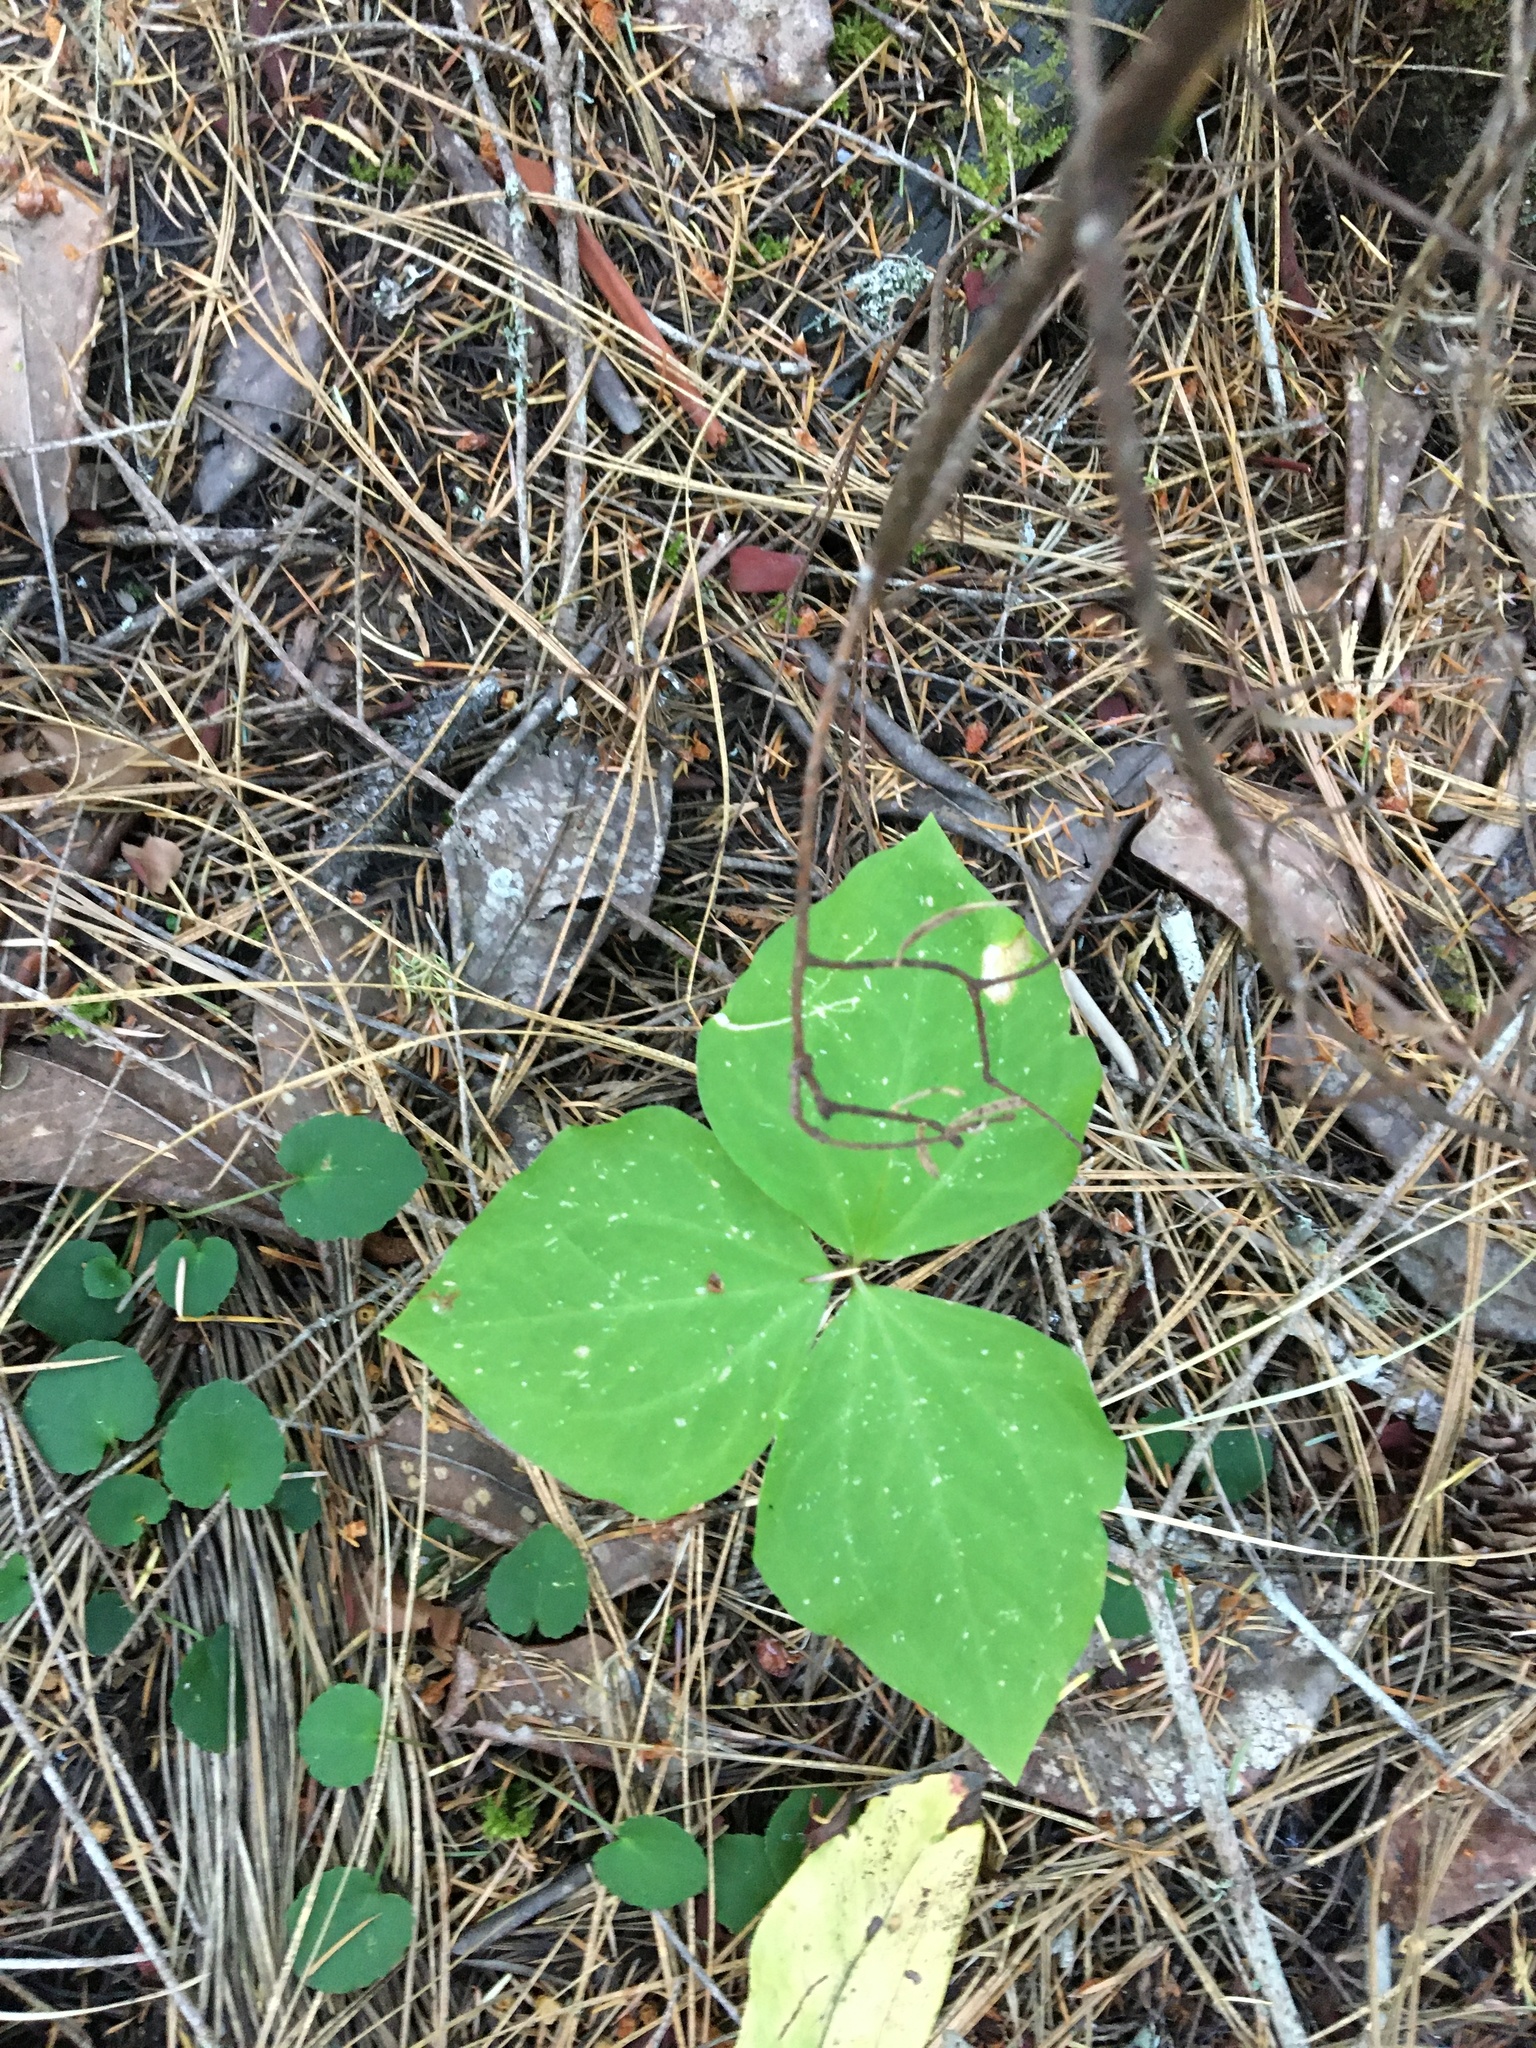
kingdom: Plantae
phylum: Tracheophyta
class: Liliopsida
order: Liliales
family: Melanthiaceae
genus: Trillium
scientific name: Trillium ovatum
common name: Pacific trillium
